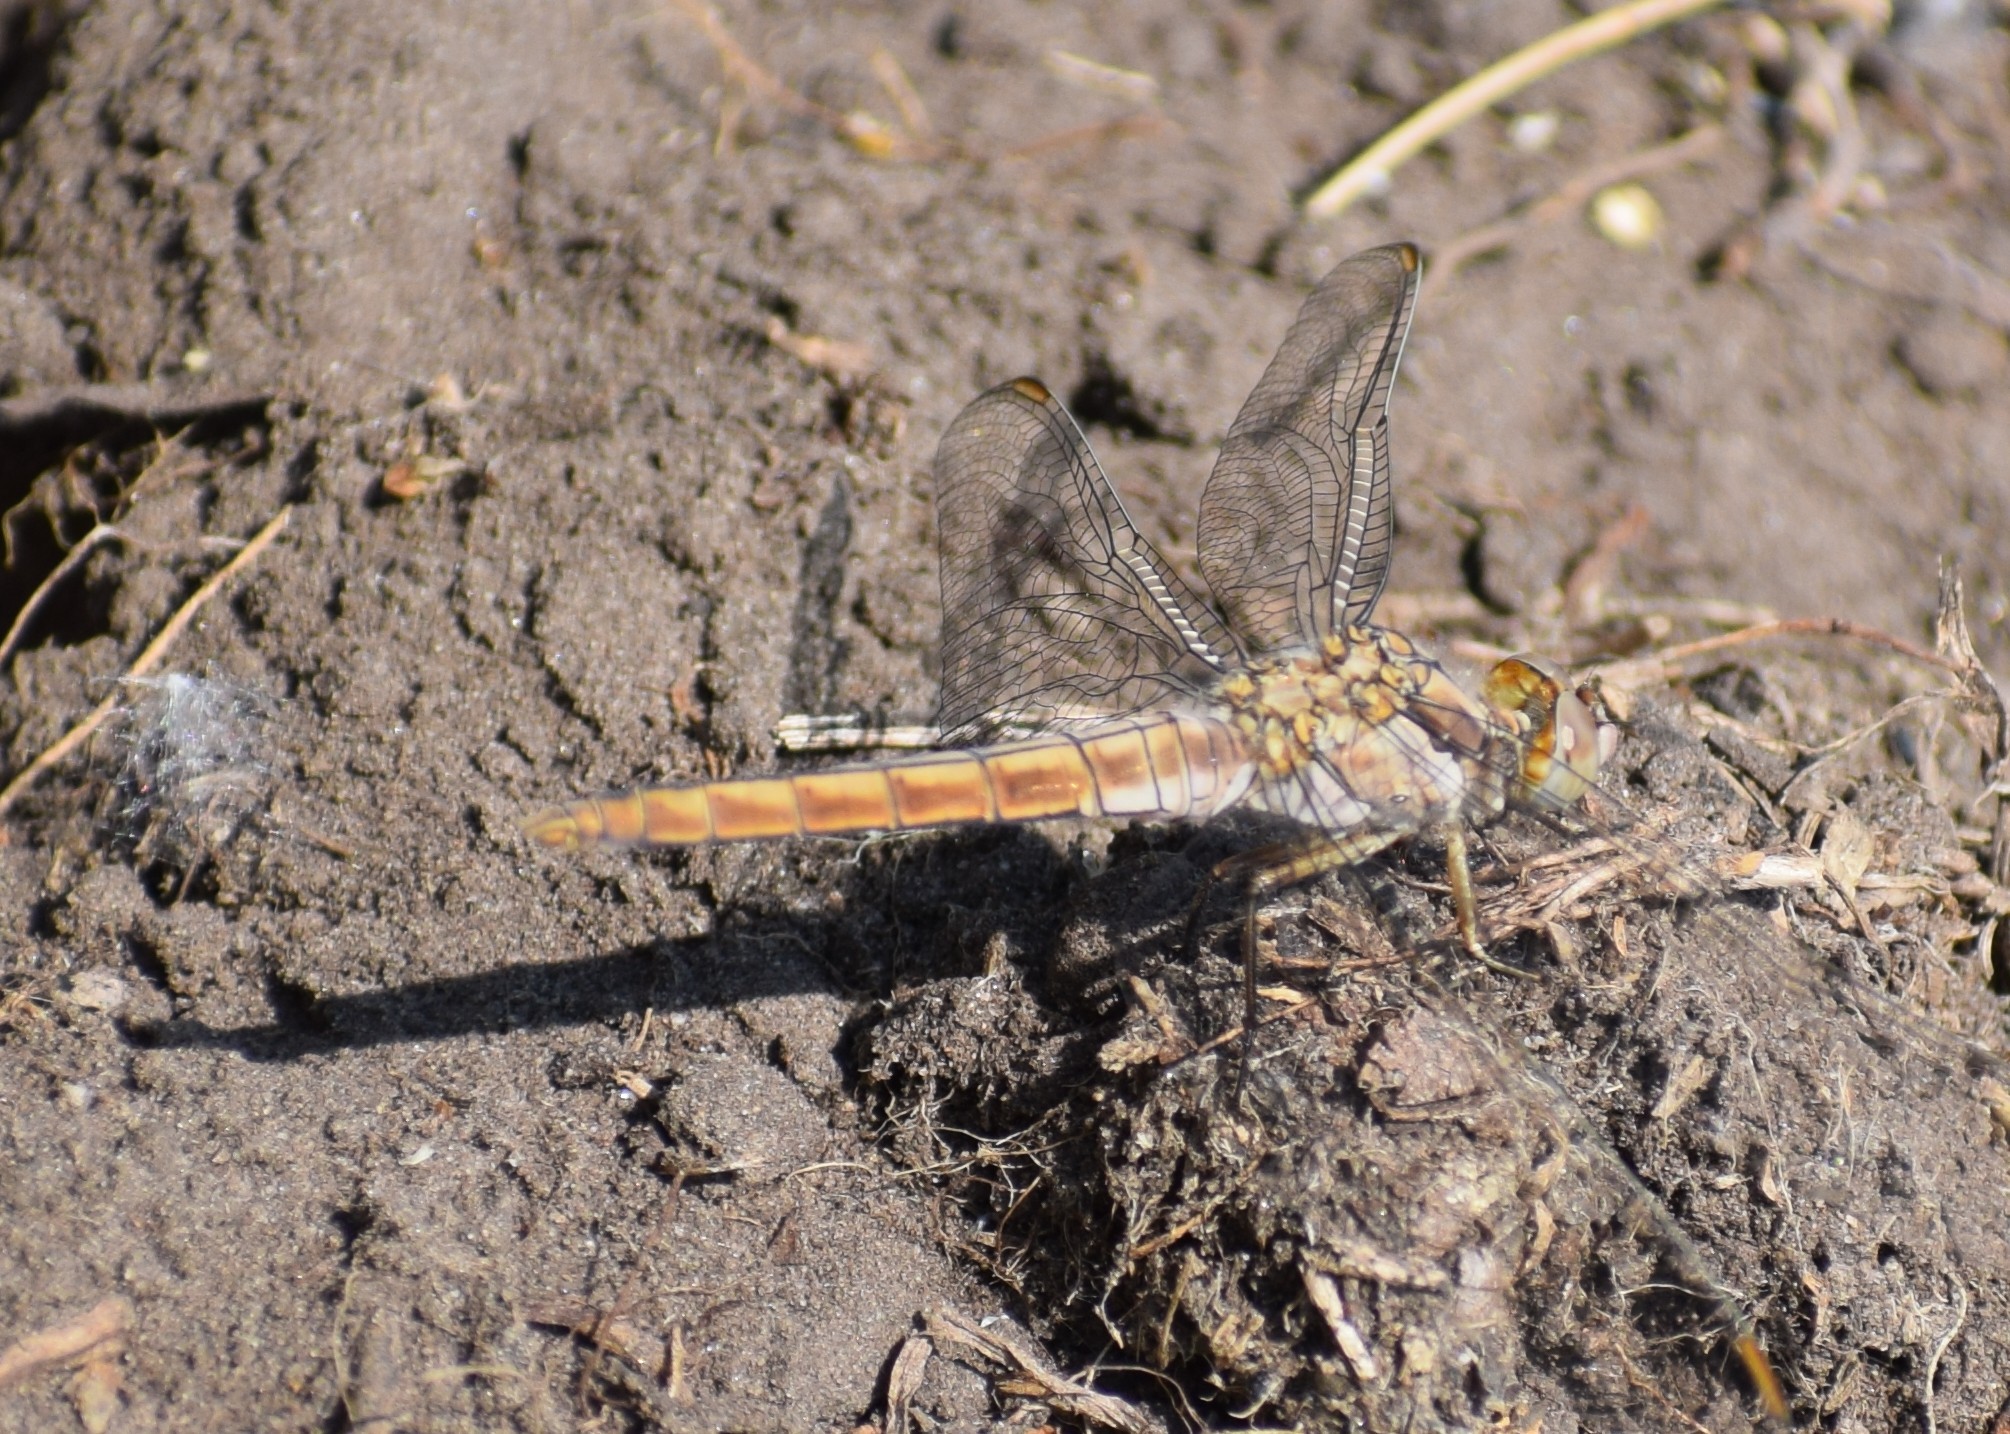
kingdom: Animalia
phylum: Arthropoda
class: Insecta
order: Odonata
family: Libellulidae
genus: Orthetrum
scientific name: Orthetrum brunneum
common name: Southern skimmer
